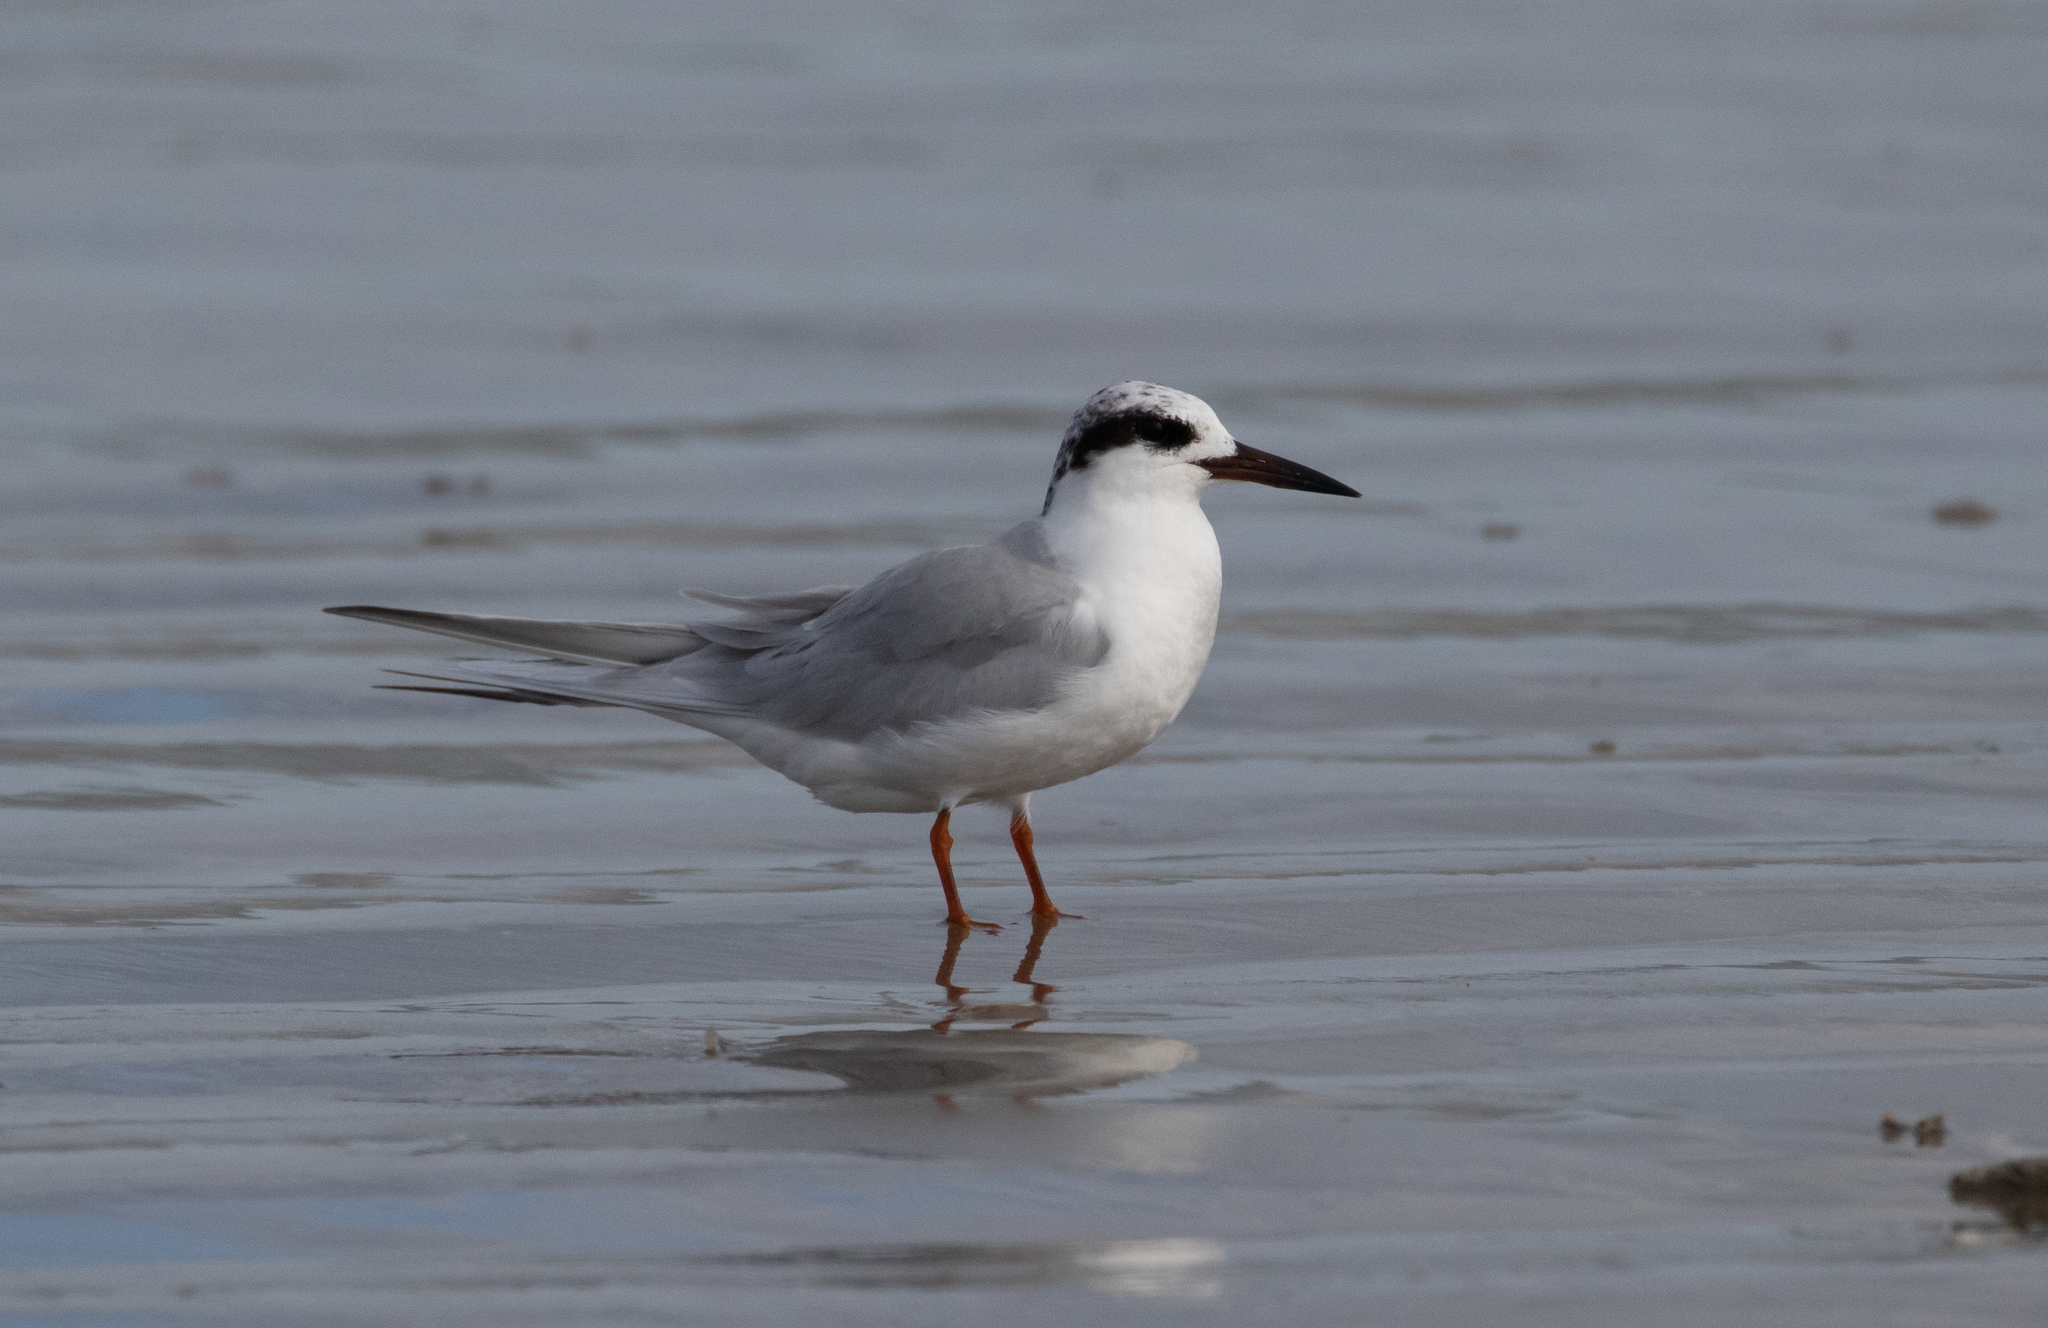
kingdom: Animalia
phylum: Chordata
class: Aves
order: Charadriiformes
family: Laridae
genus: Sterna
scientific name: Sterna forsteri
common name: Forster's tern
